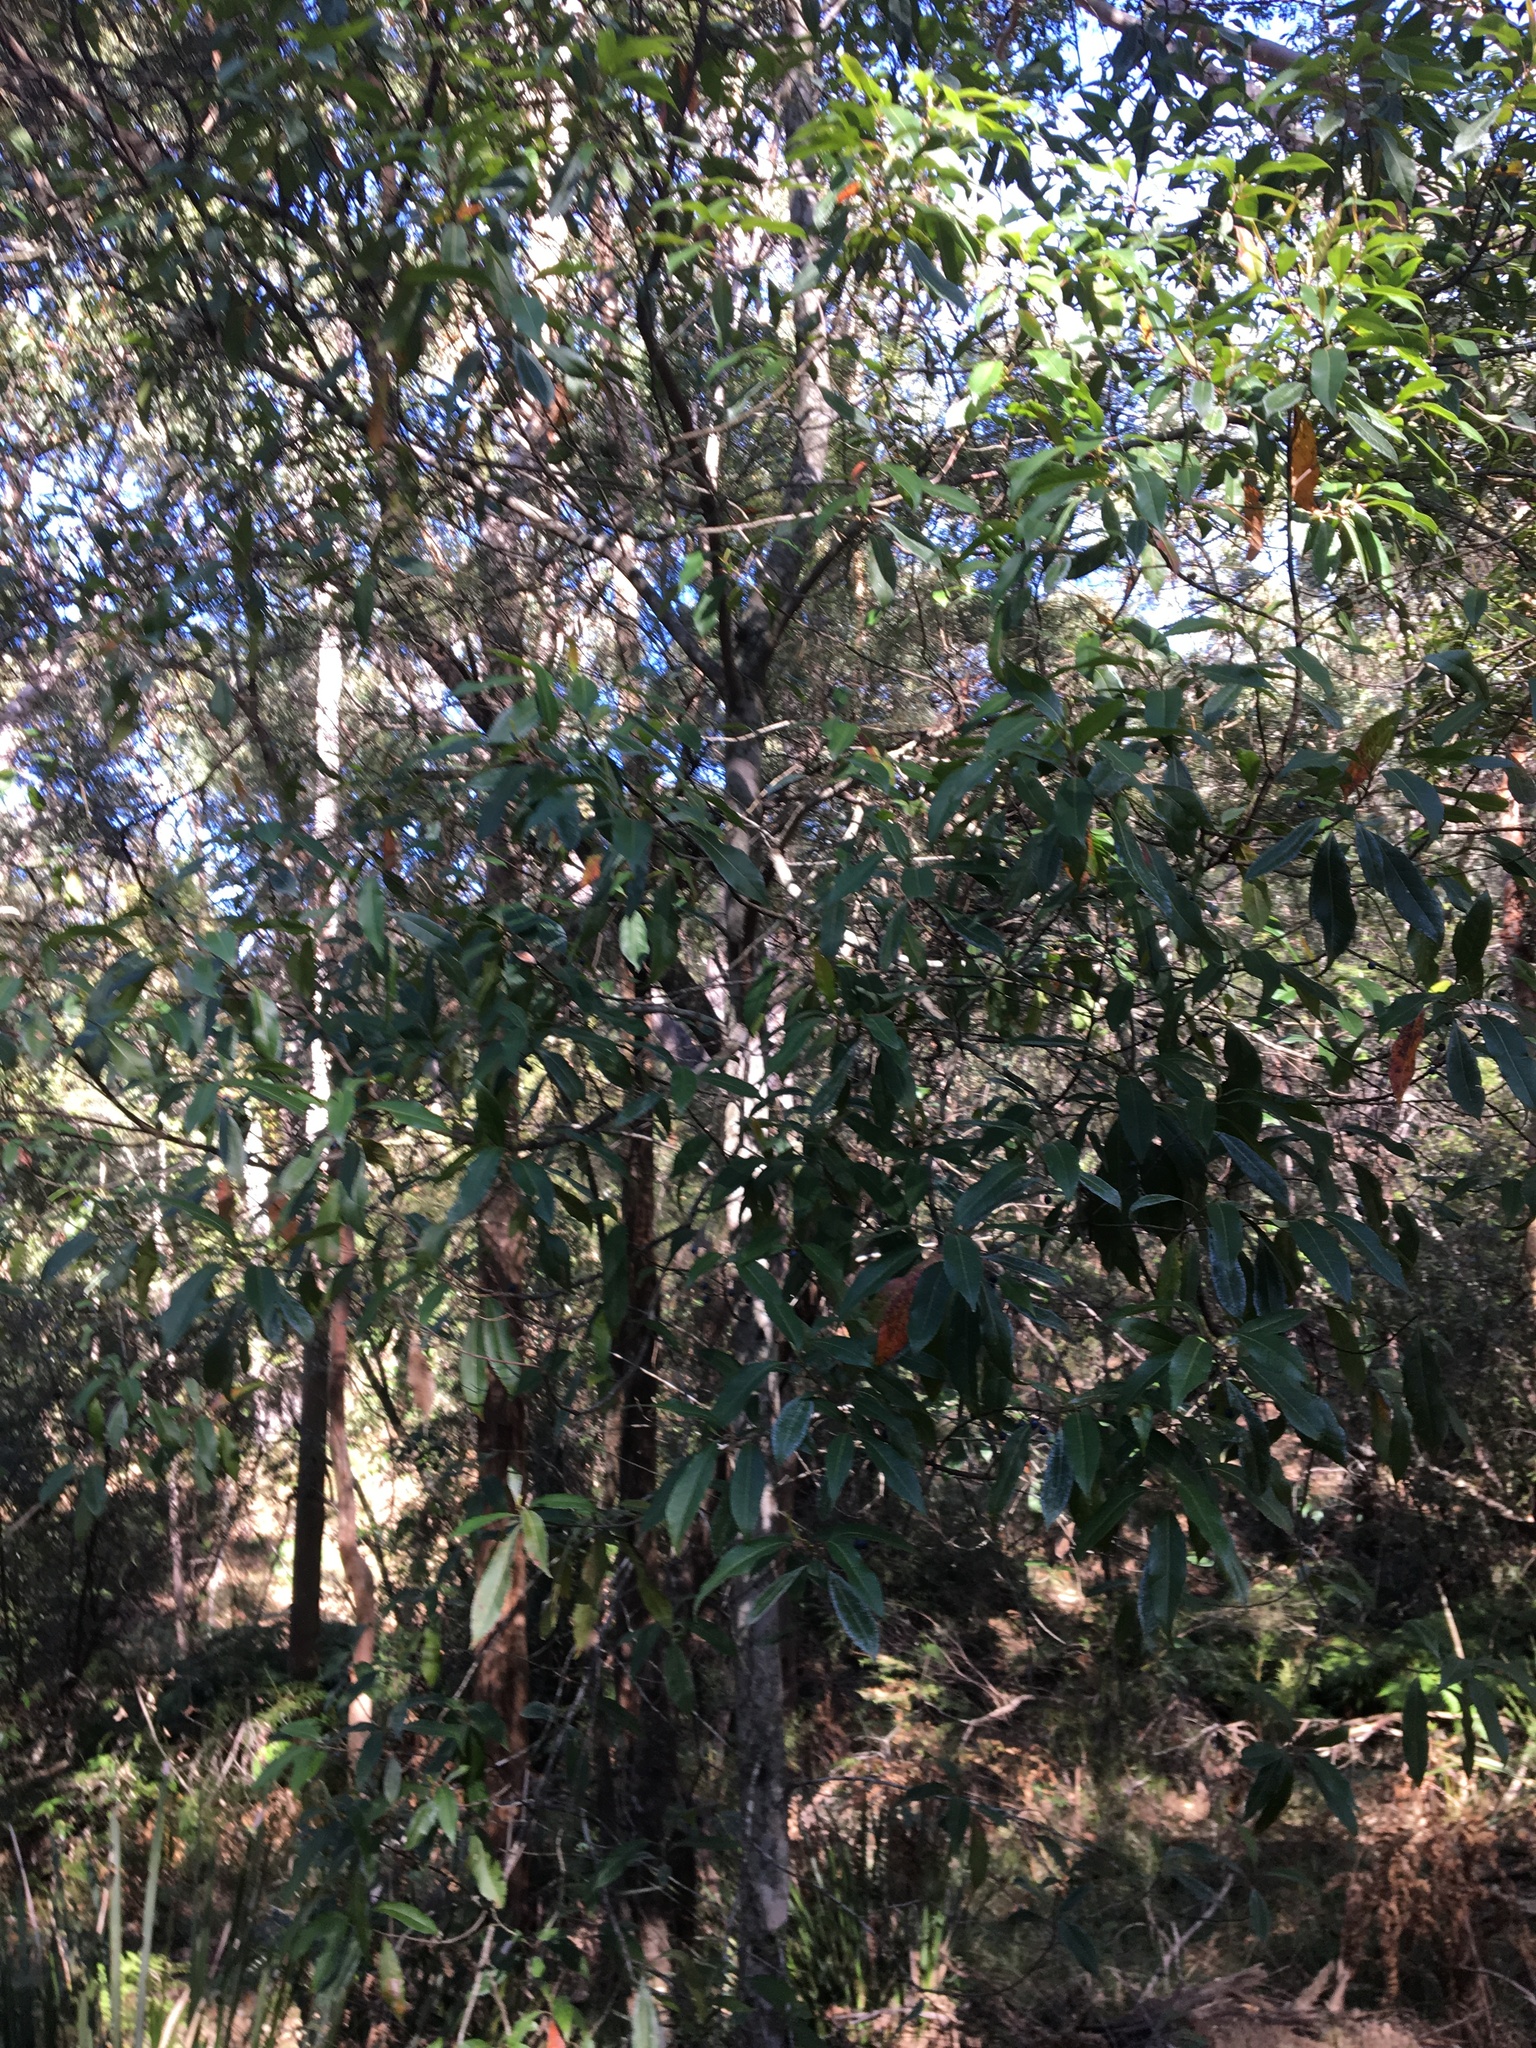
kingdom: Plantae
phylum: Tracheophyta
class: Magnoliopsida
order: Oxalidales
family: Elaeocarpaceae
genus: Elaeocarpus
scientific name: Elaeocarpus reticulatus
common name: Ash quandong
